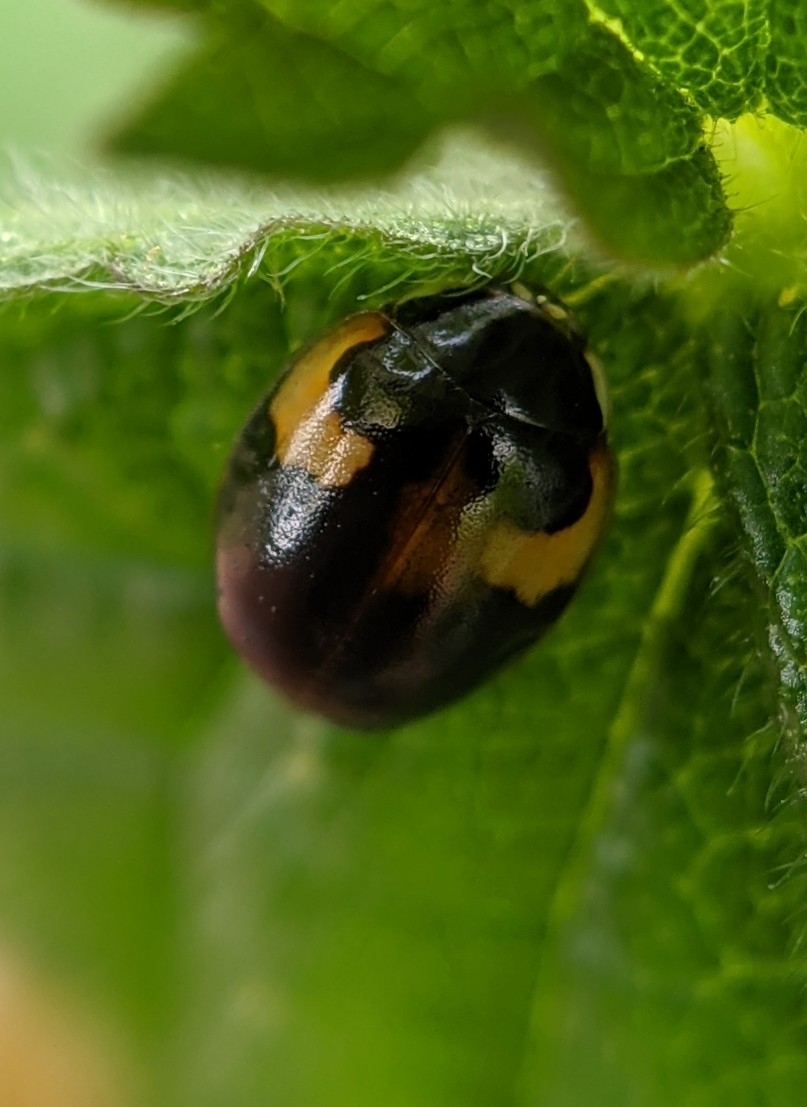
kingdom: Animalia
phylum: Arthropoda
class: Insecta
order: Coleoptera
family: Coccinellidae
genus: Adalia
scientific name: Adalia decempunctata
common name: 10-spot ladybird
